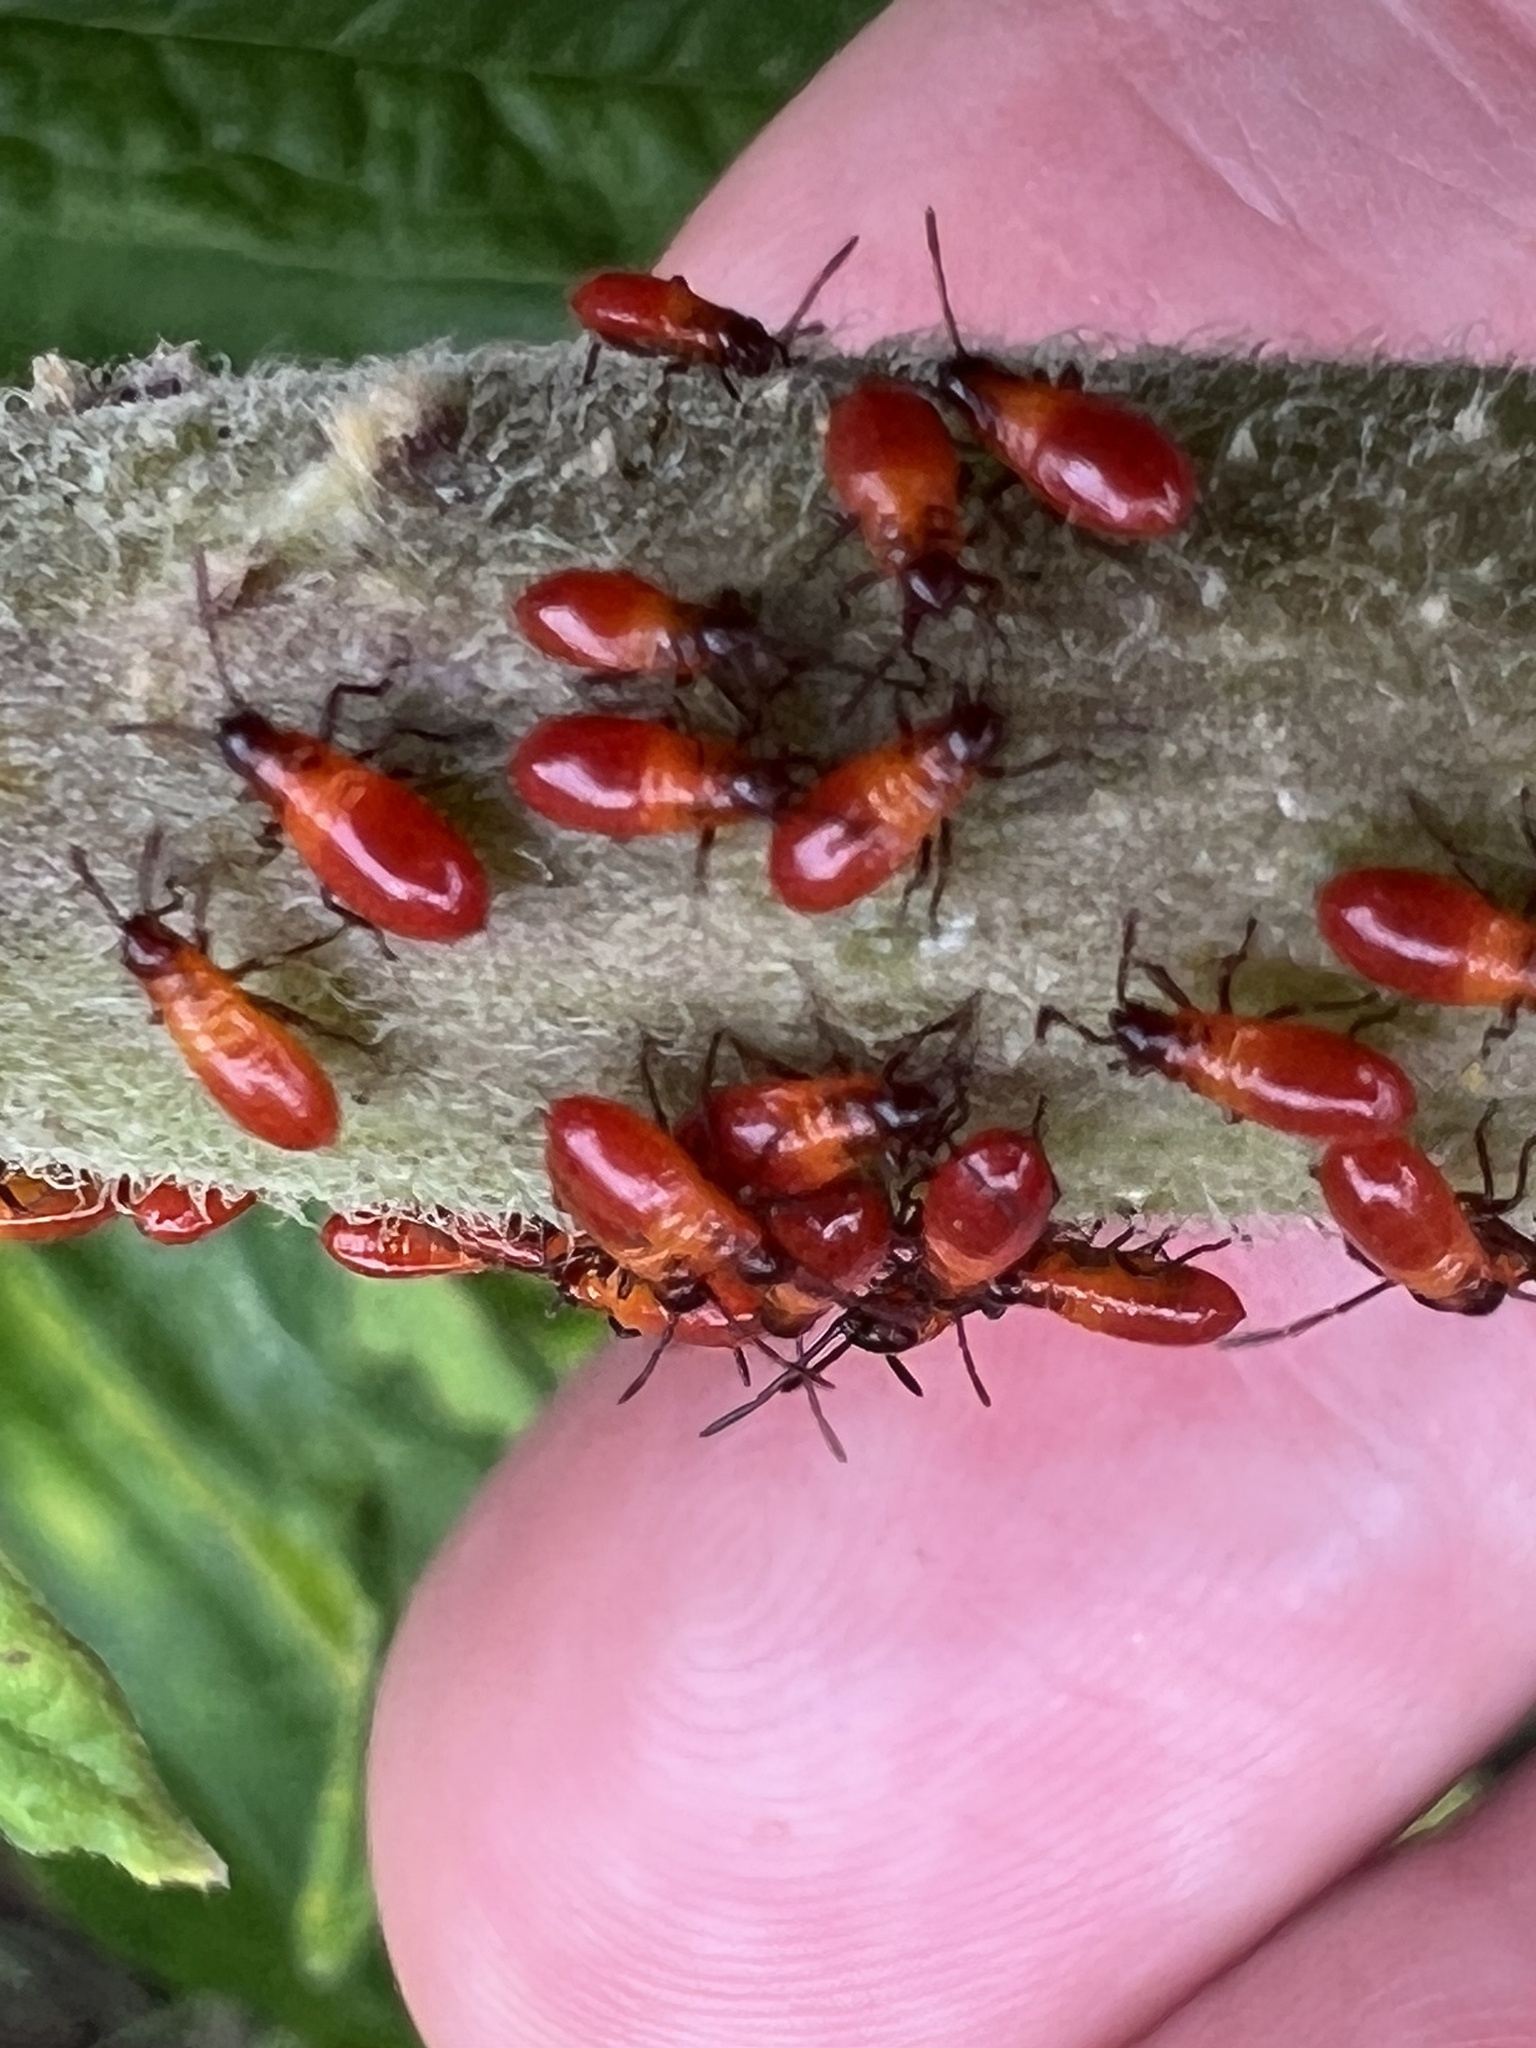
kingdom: Animalia
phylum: Arthropoda
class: Insecta
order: Hemiptera
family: Lygaeidae
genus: Oncopeltus
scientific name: Oncopeltus fasciatus
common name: Large milkweed bug
